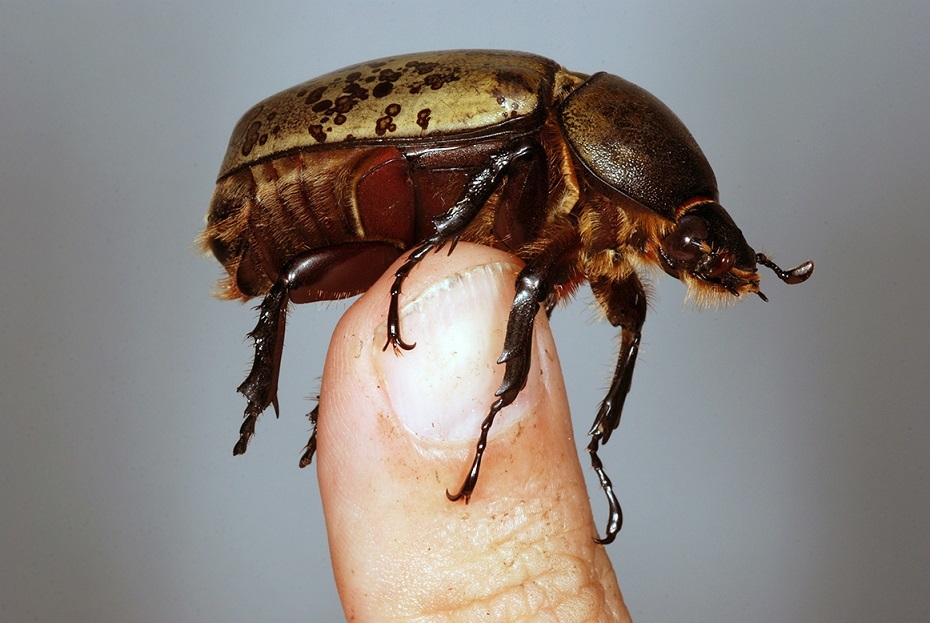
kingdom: Animalia
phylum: Arthropoda
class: Insecta
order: Coleoptera
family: Scarabaeidae
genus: Dynastes
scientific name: Dynastes tityus
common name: Eastern hercules beetle
